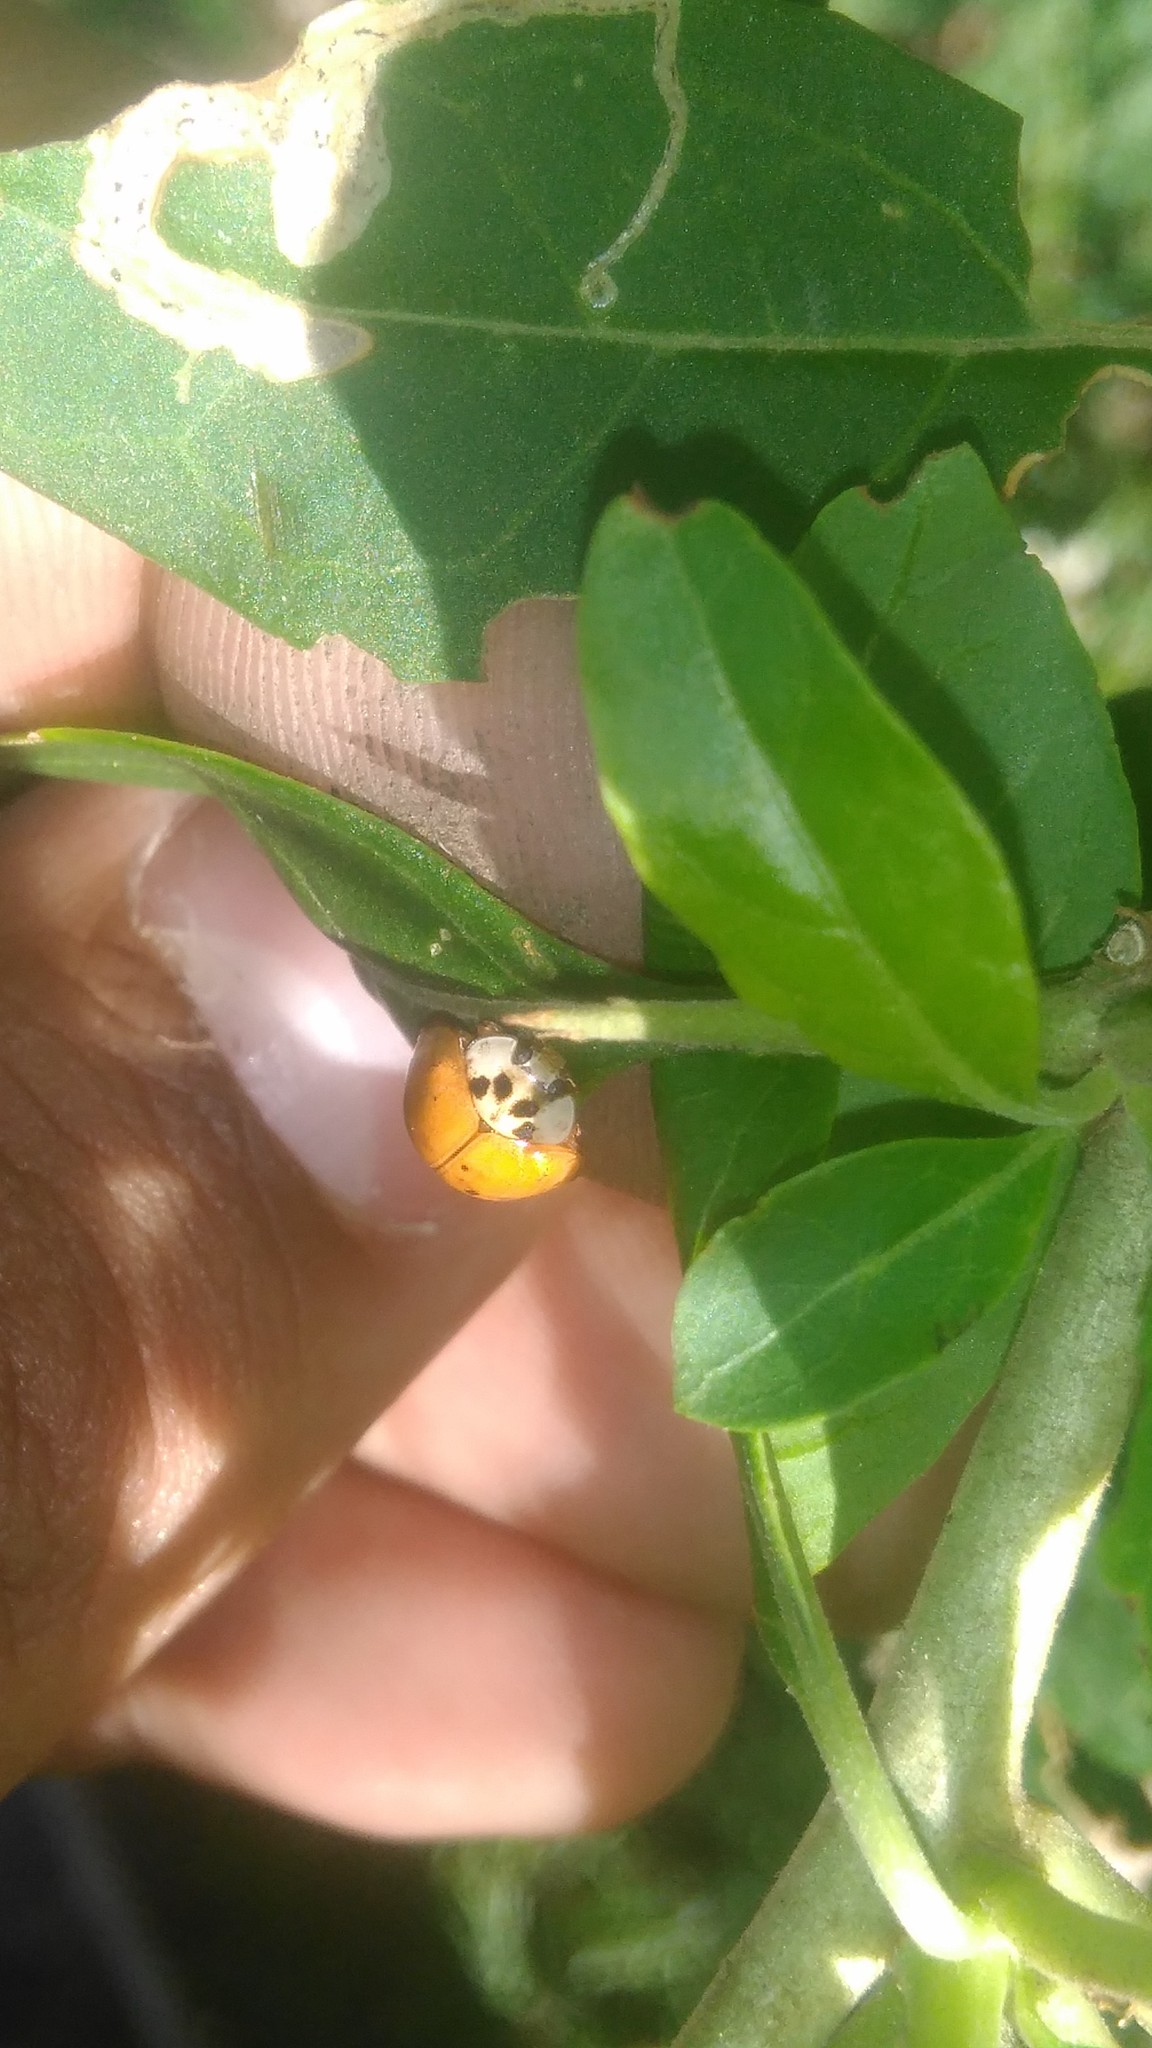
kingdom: Animalia
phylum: Arthropoda
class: Insecta
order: Coleoptera
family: Coccinellidae
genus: Harmonia
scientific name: Harmonia axyridis
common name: Harlequin ladybird
